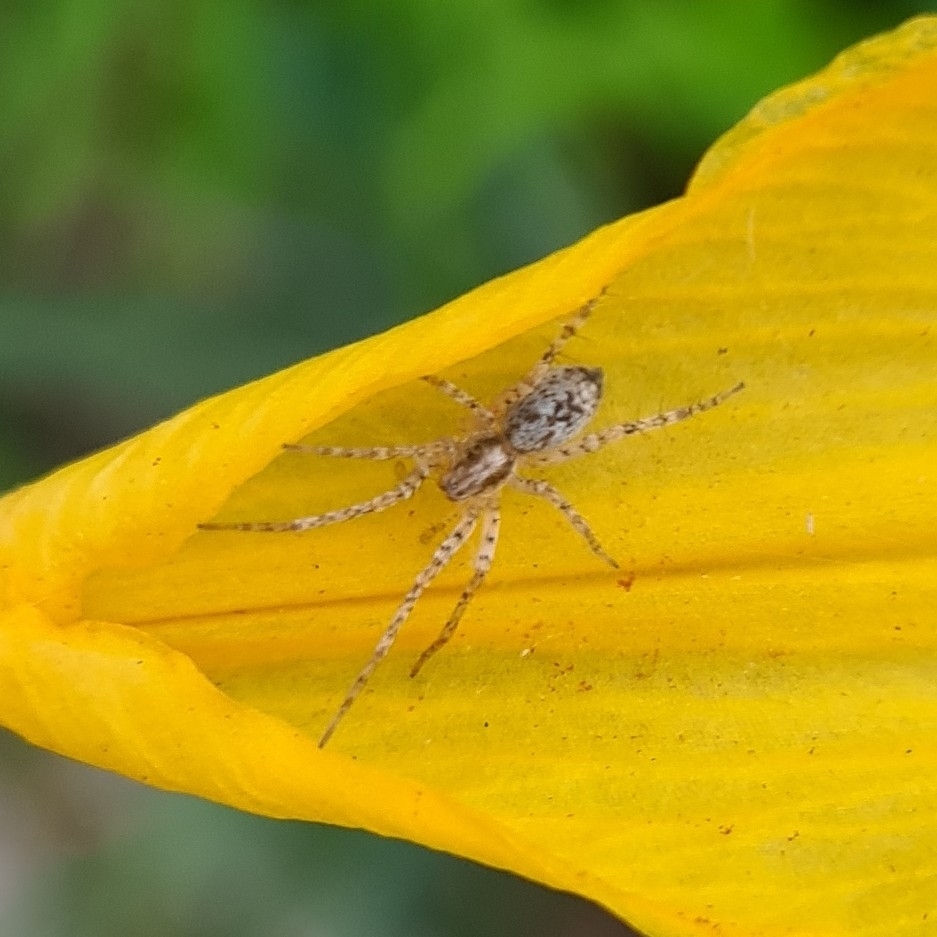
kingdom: Animalia
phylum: Arthropoda
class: Arachnida
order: Araneae
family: Anyphaenidae
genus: Anyphaena
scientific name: Anyphaena accentuata
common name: Buzzing spider
